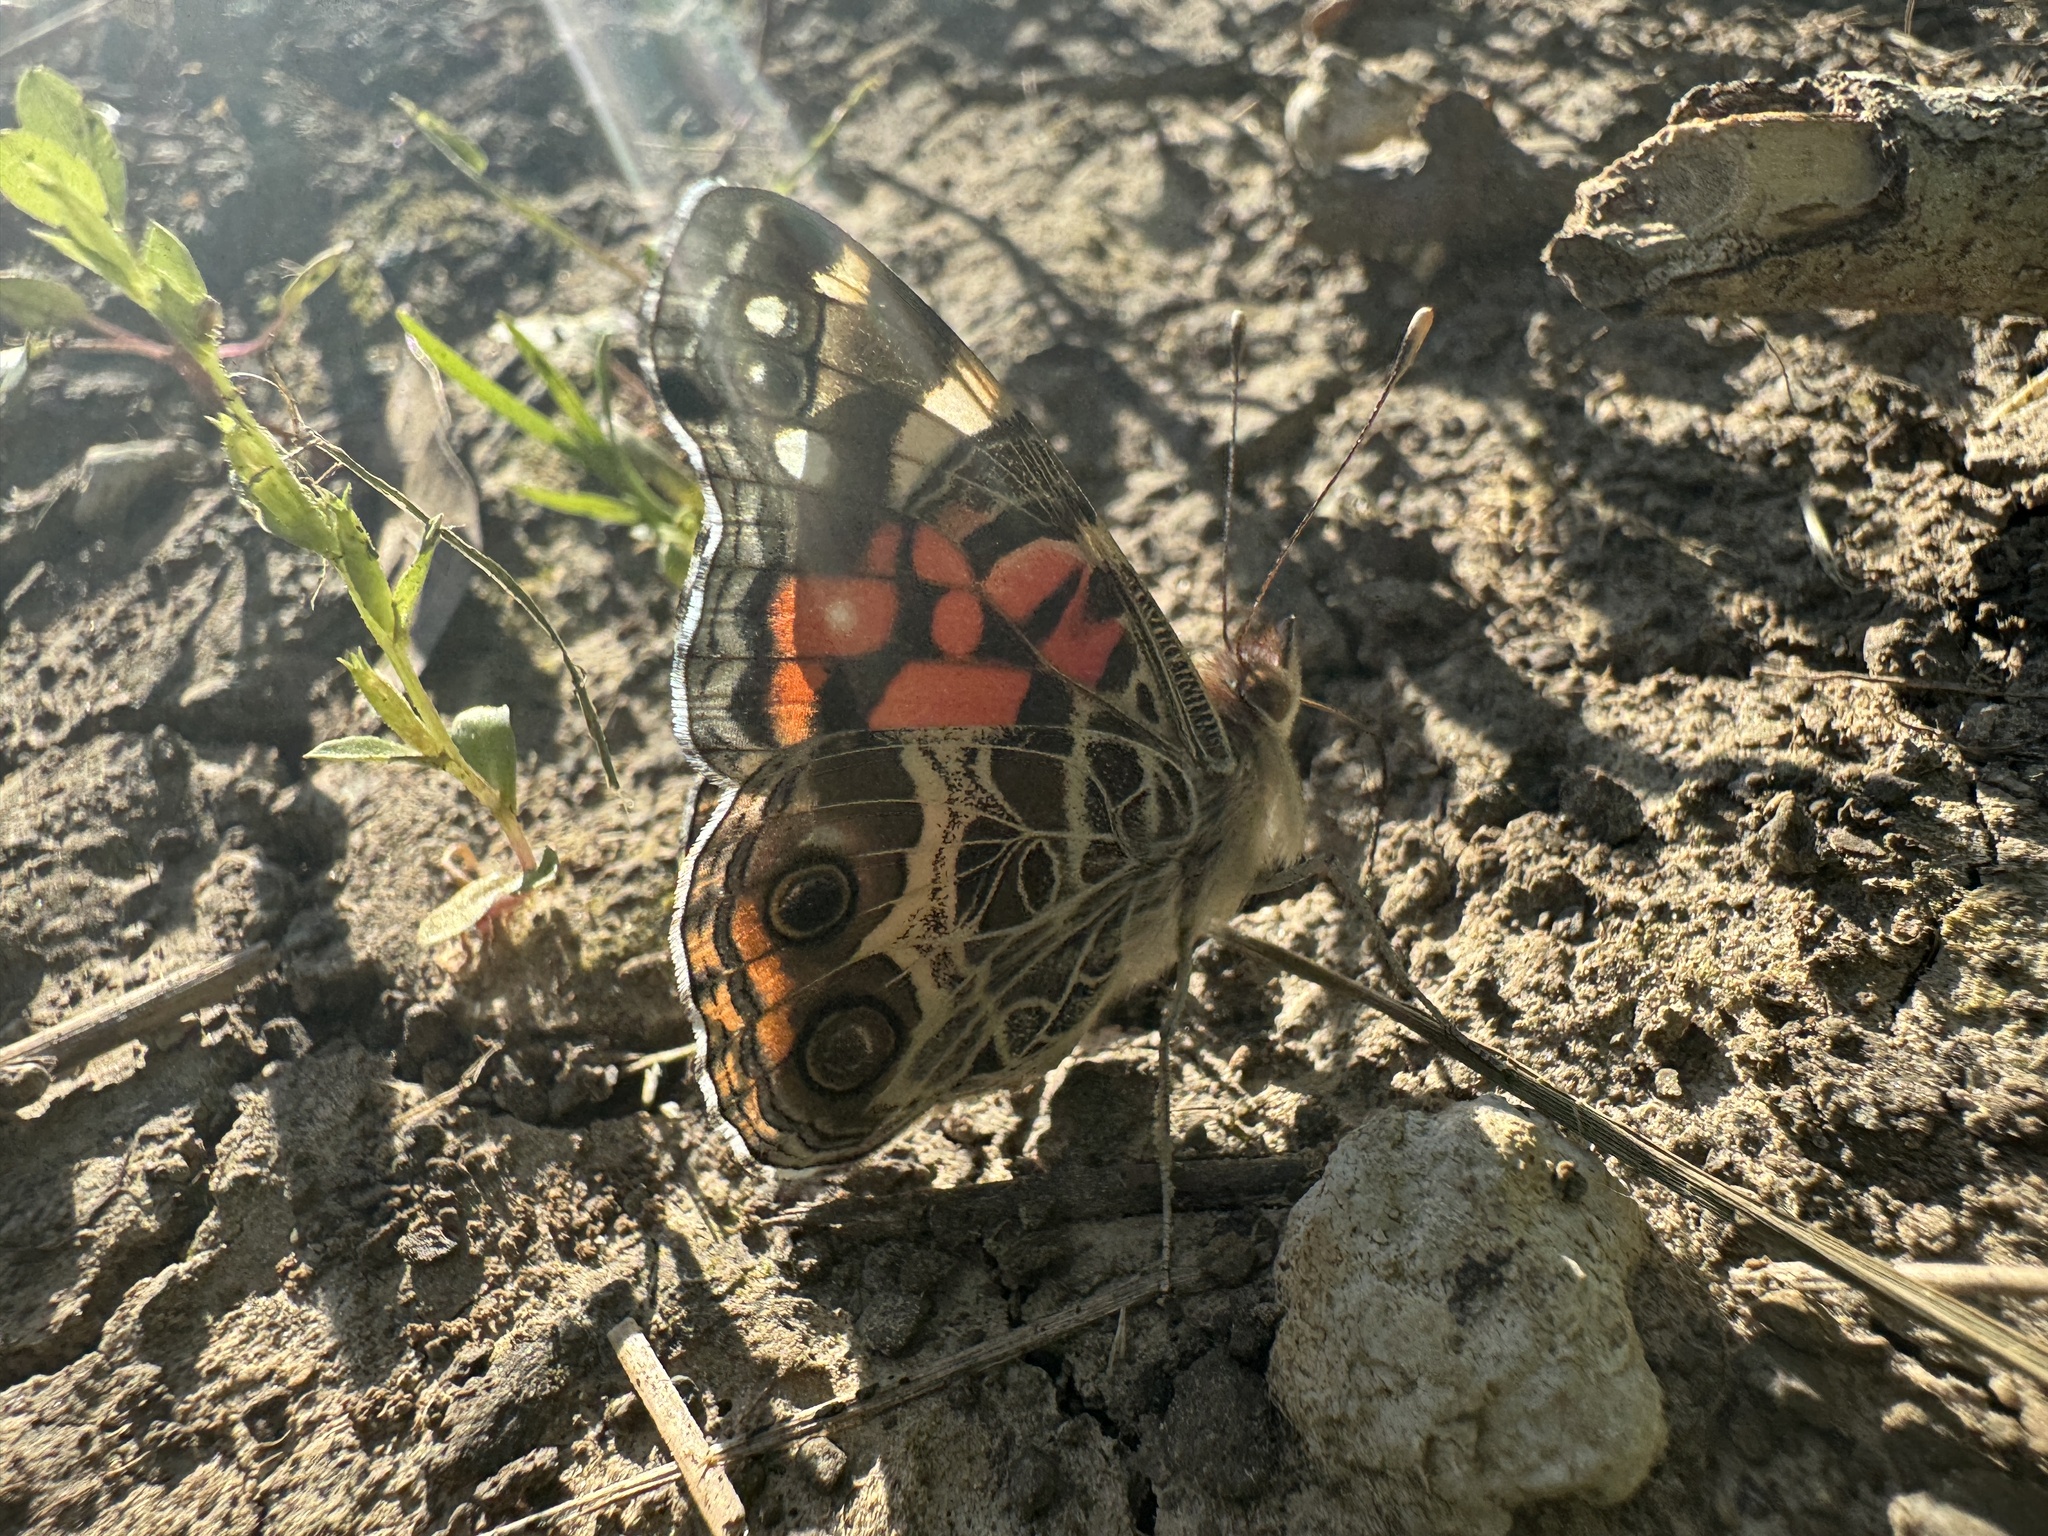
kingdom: Animalia
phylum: Arthropoda
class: Insecta
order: Lepidoptera
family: Nymphalidae
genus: Vanessa
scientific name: Vanessa virginiensis
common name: American lady
